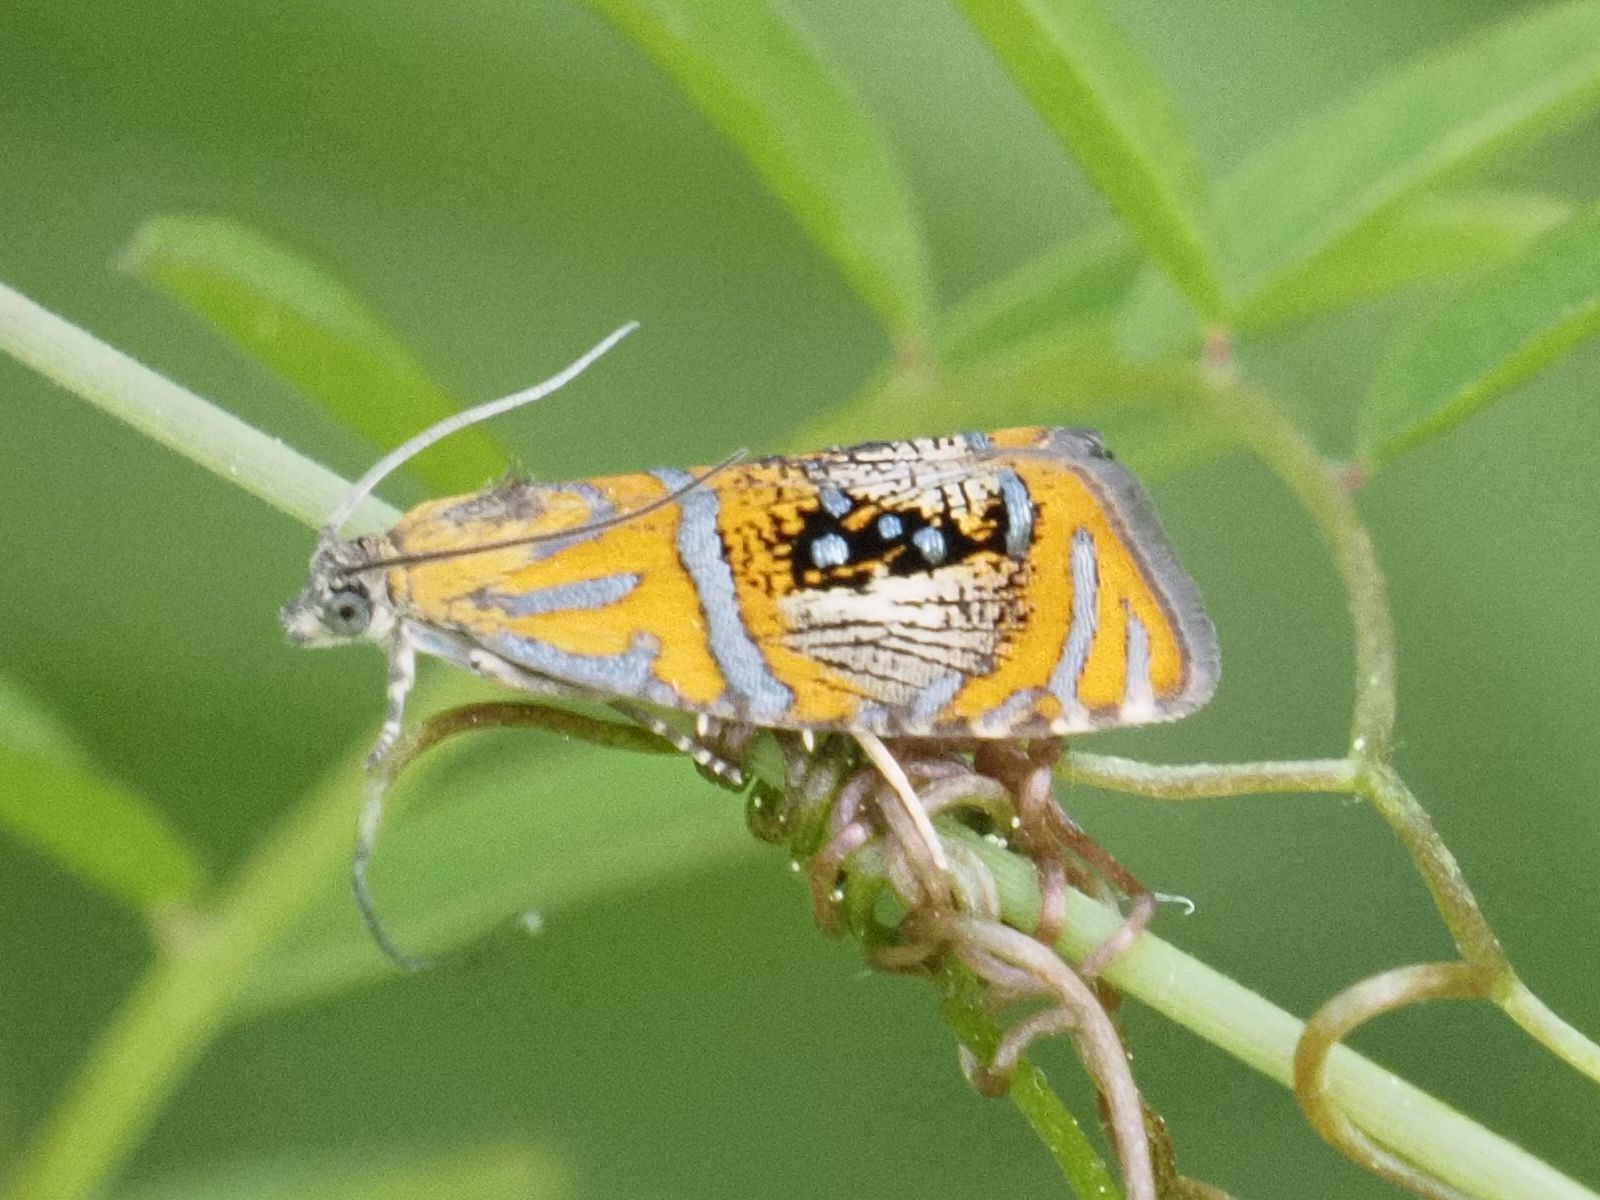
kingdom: Animalia
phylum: Arthropoda
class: Insecta
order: Lepidoptera
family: Tortricidae
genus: Olethreutes
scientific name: Olethreutes arcuella
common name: Arched marble
